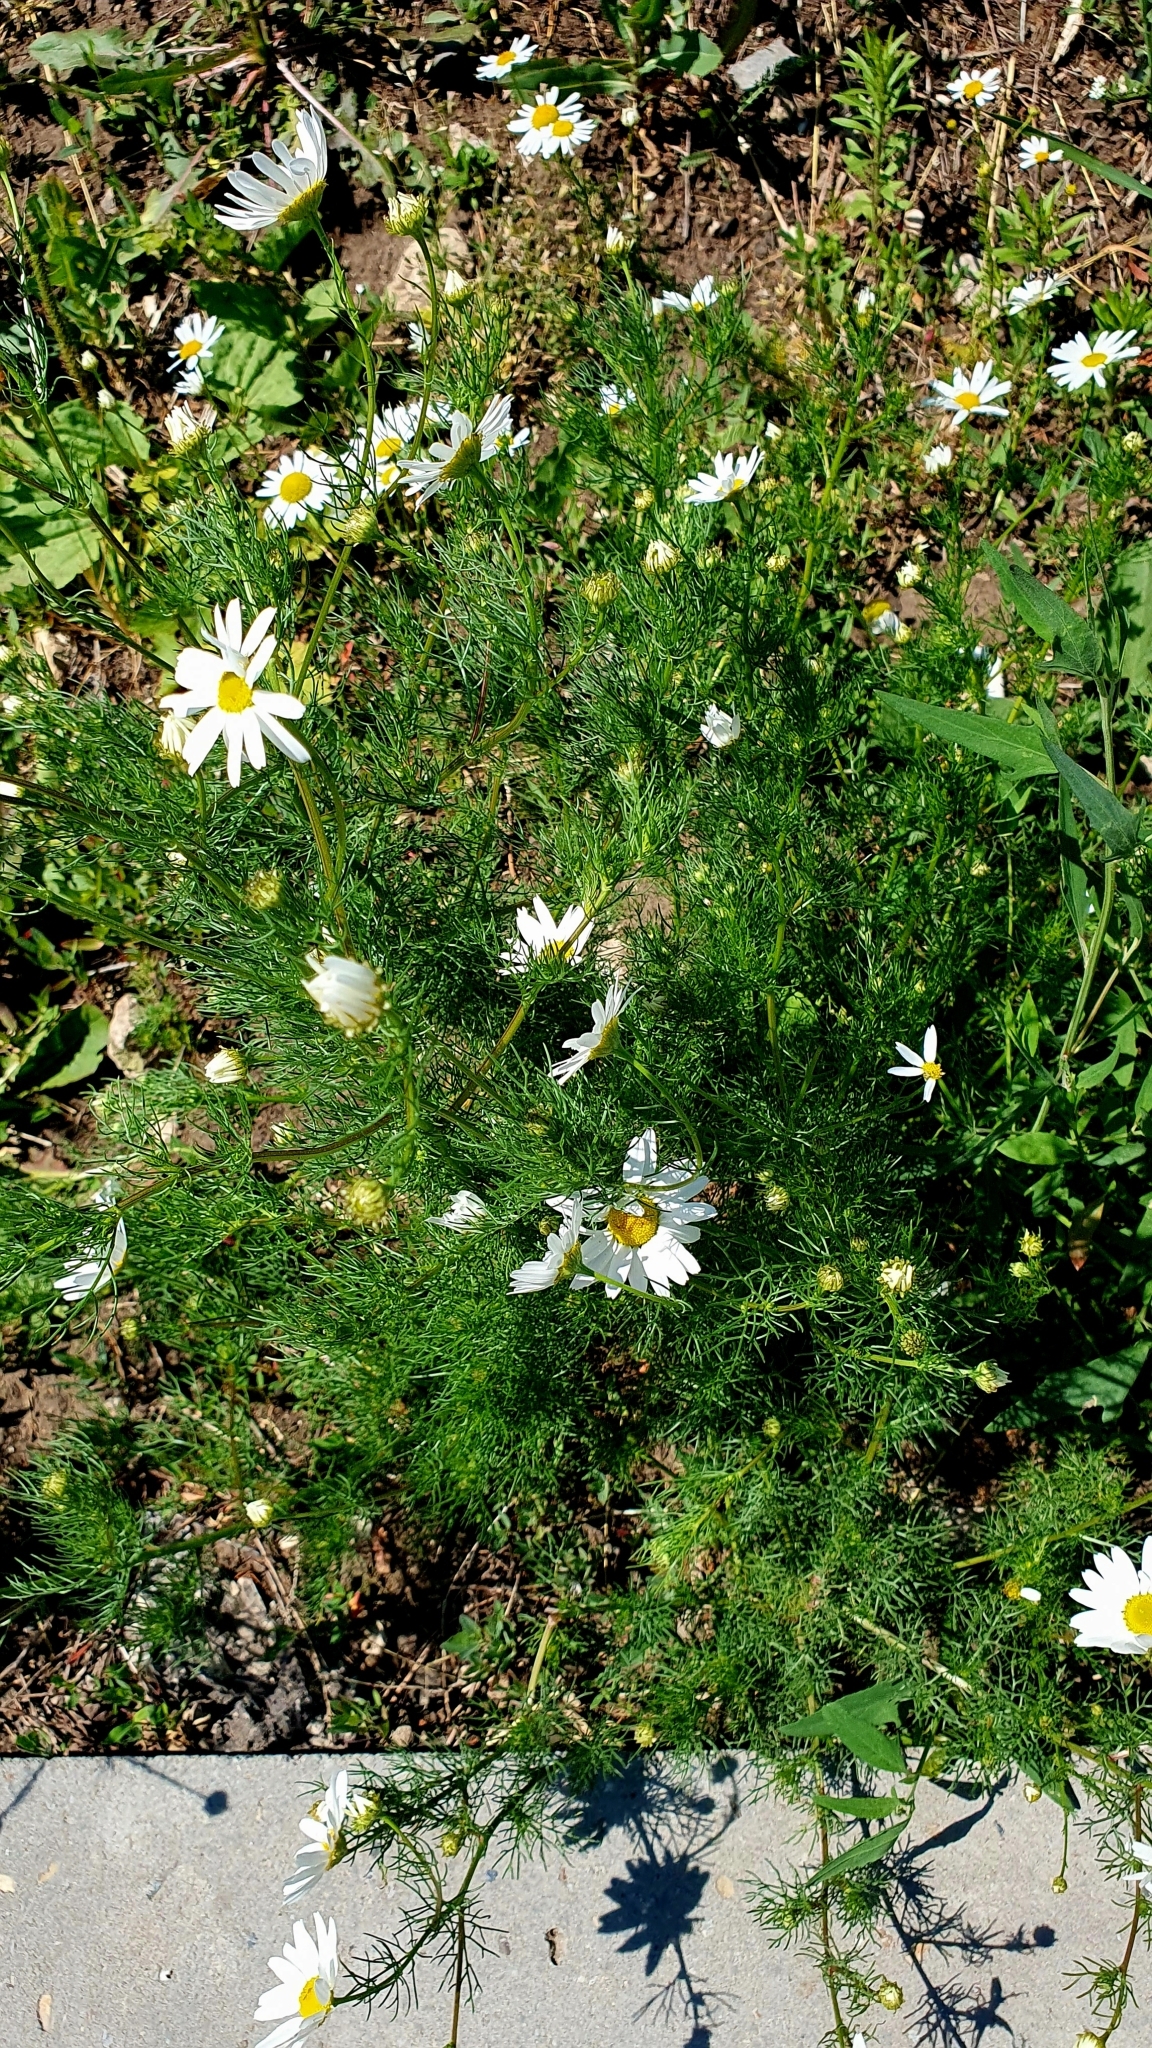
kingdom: Plantae
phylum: Tracheophyta
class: Magnoliopsida
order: Asterales
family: Asteraceae
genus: Tripleurospermum
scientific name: Tripleurospermum inodorum
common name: Scentless mayweed
